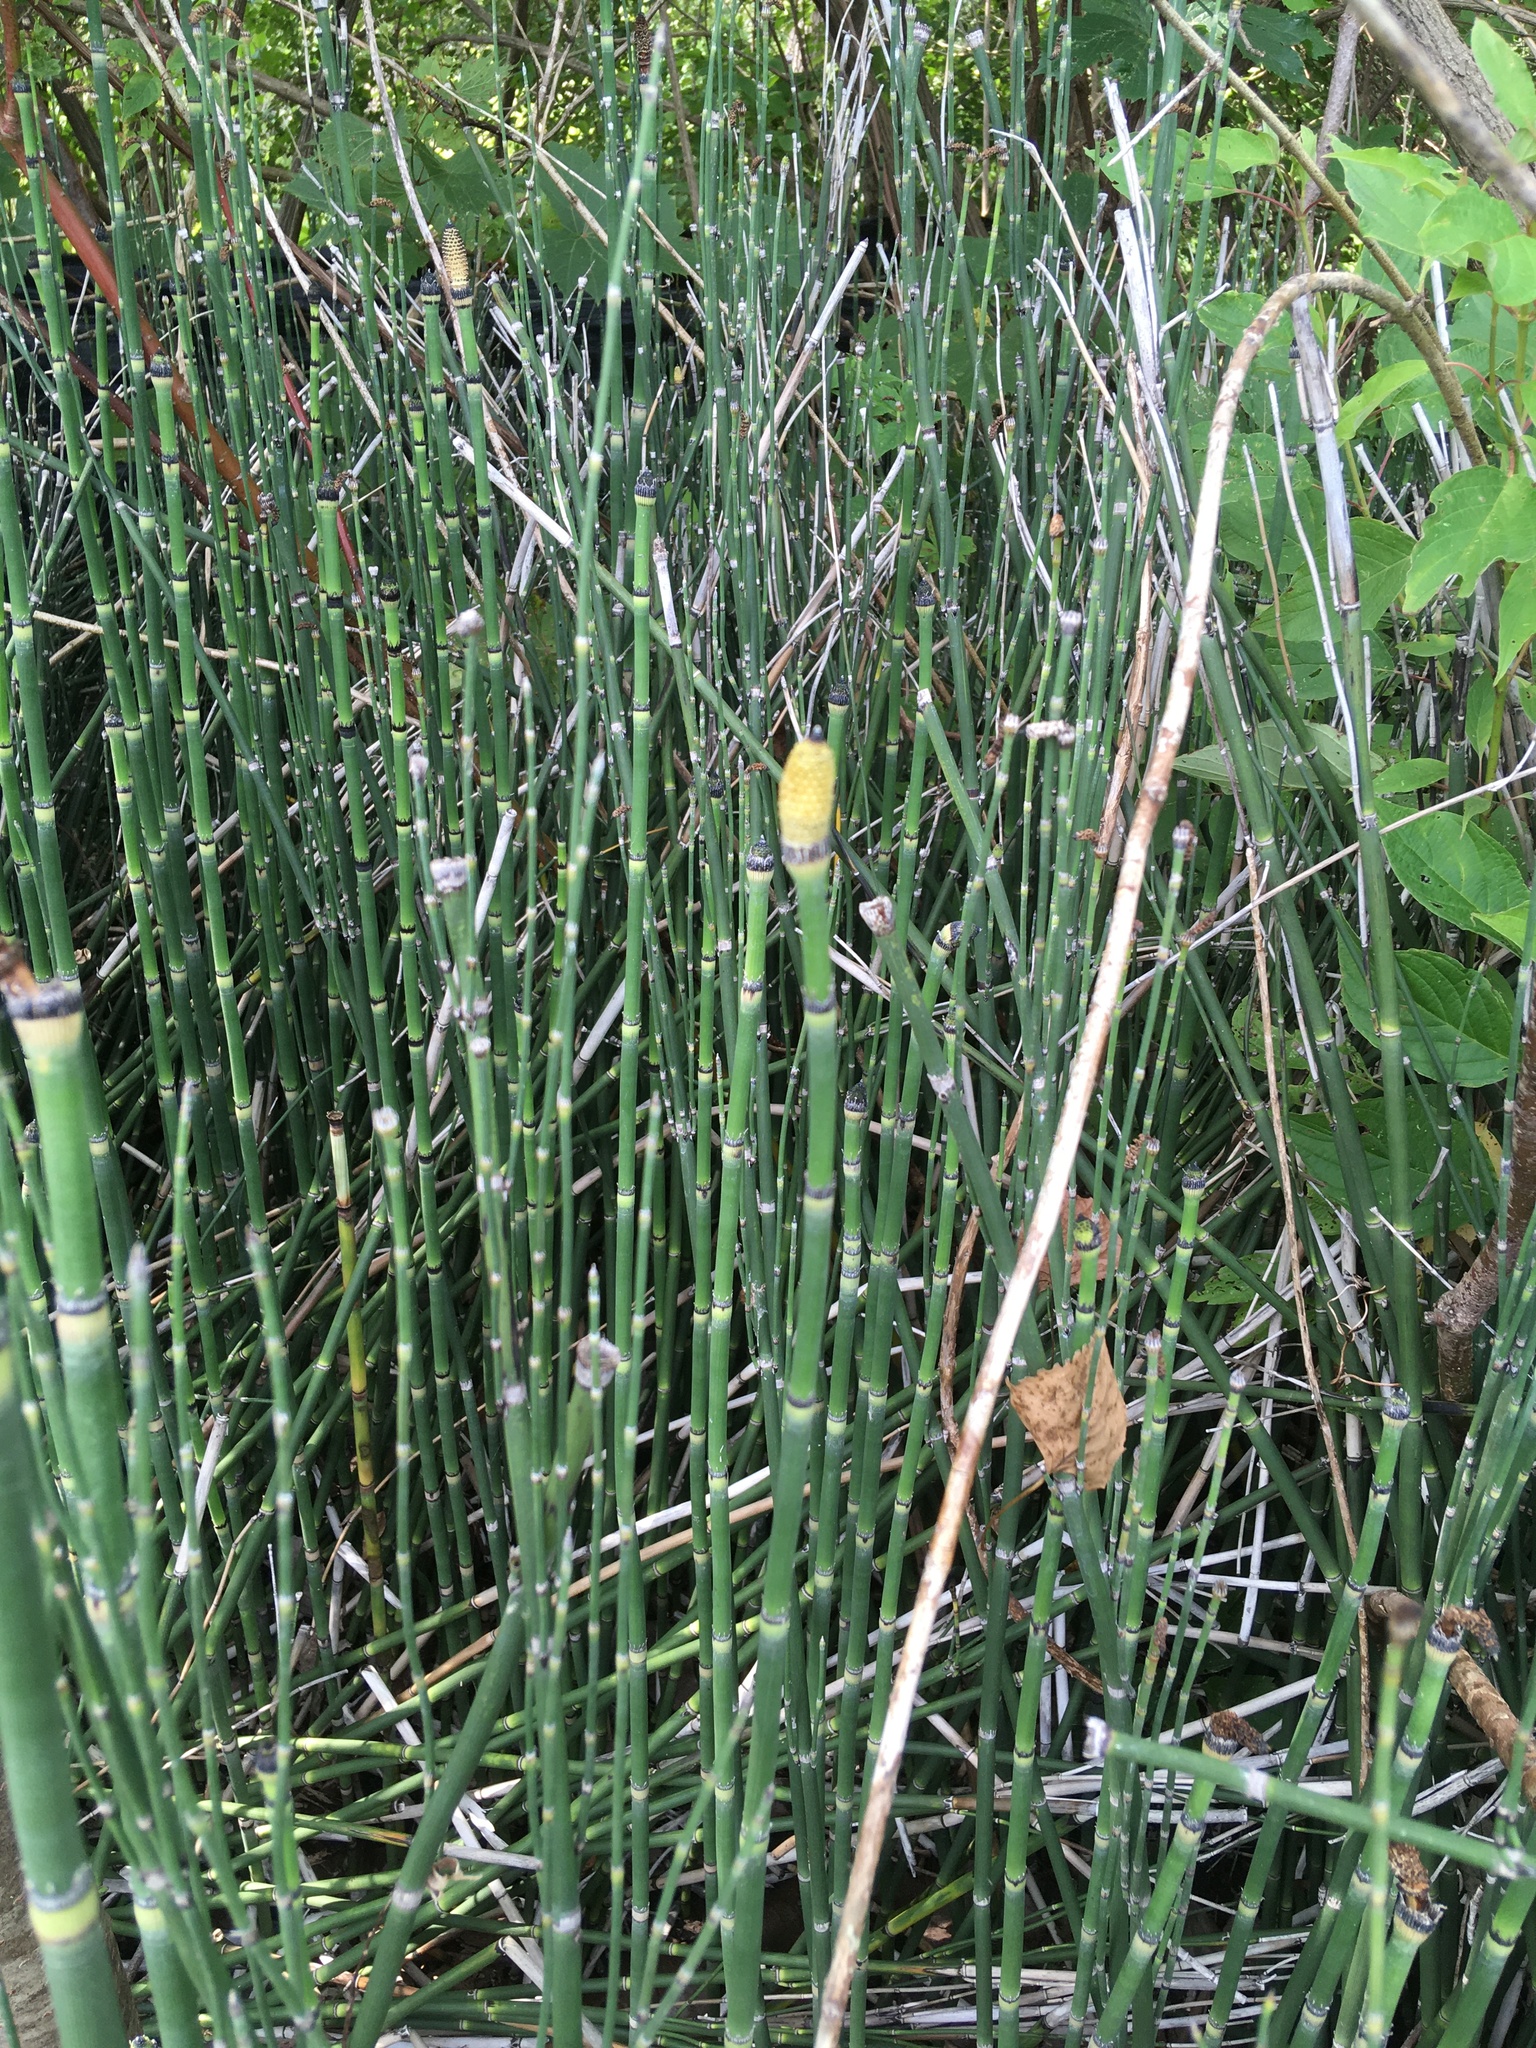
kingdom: Plantae
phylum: Tracheophyta
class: Polypodiopsida
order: Equisetales
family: Equisetaceae
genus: Equisetum
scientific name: Equisetum hyemale
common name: Rough horsetail
